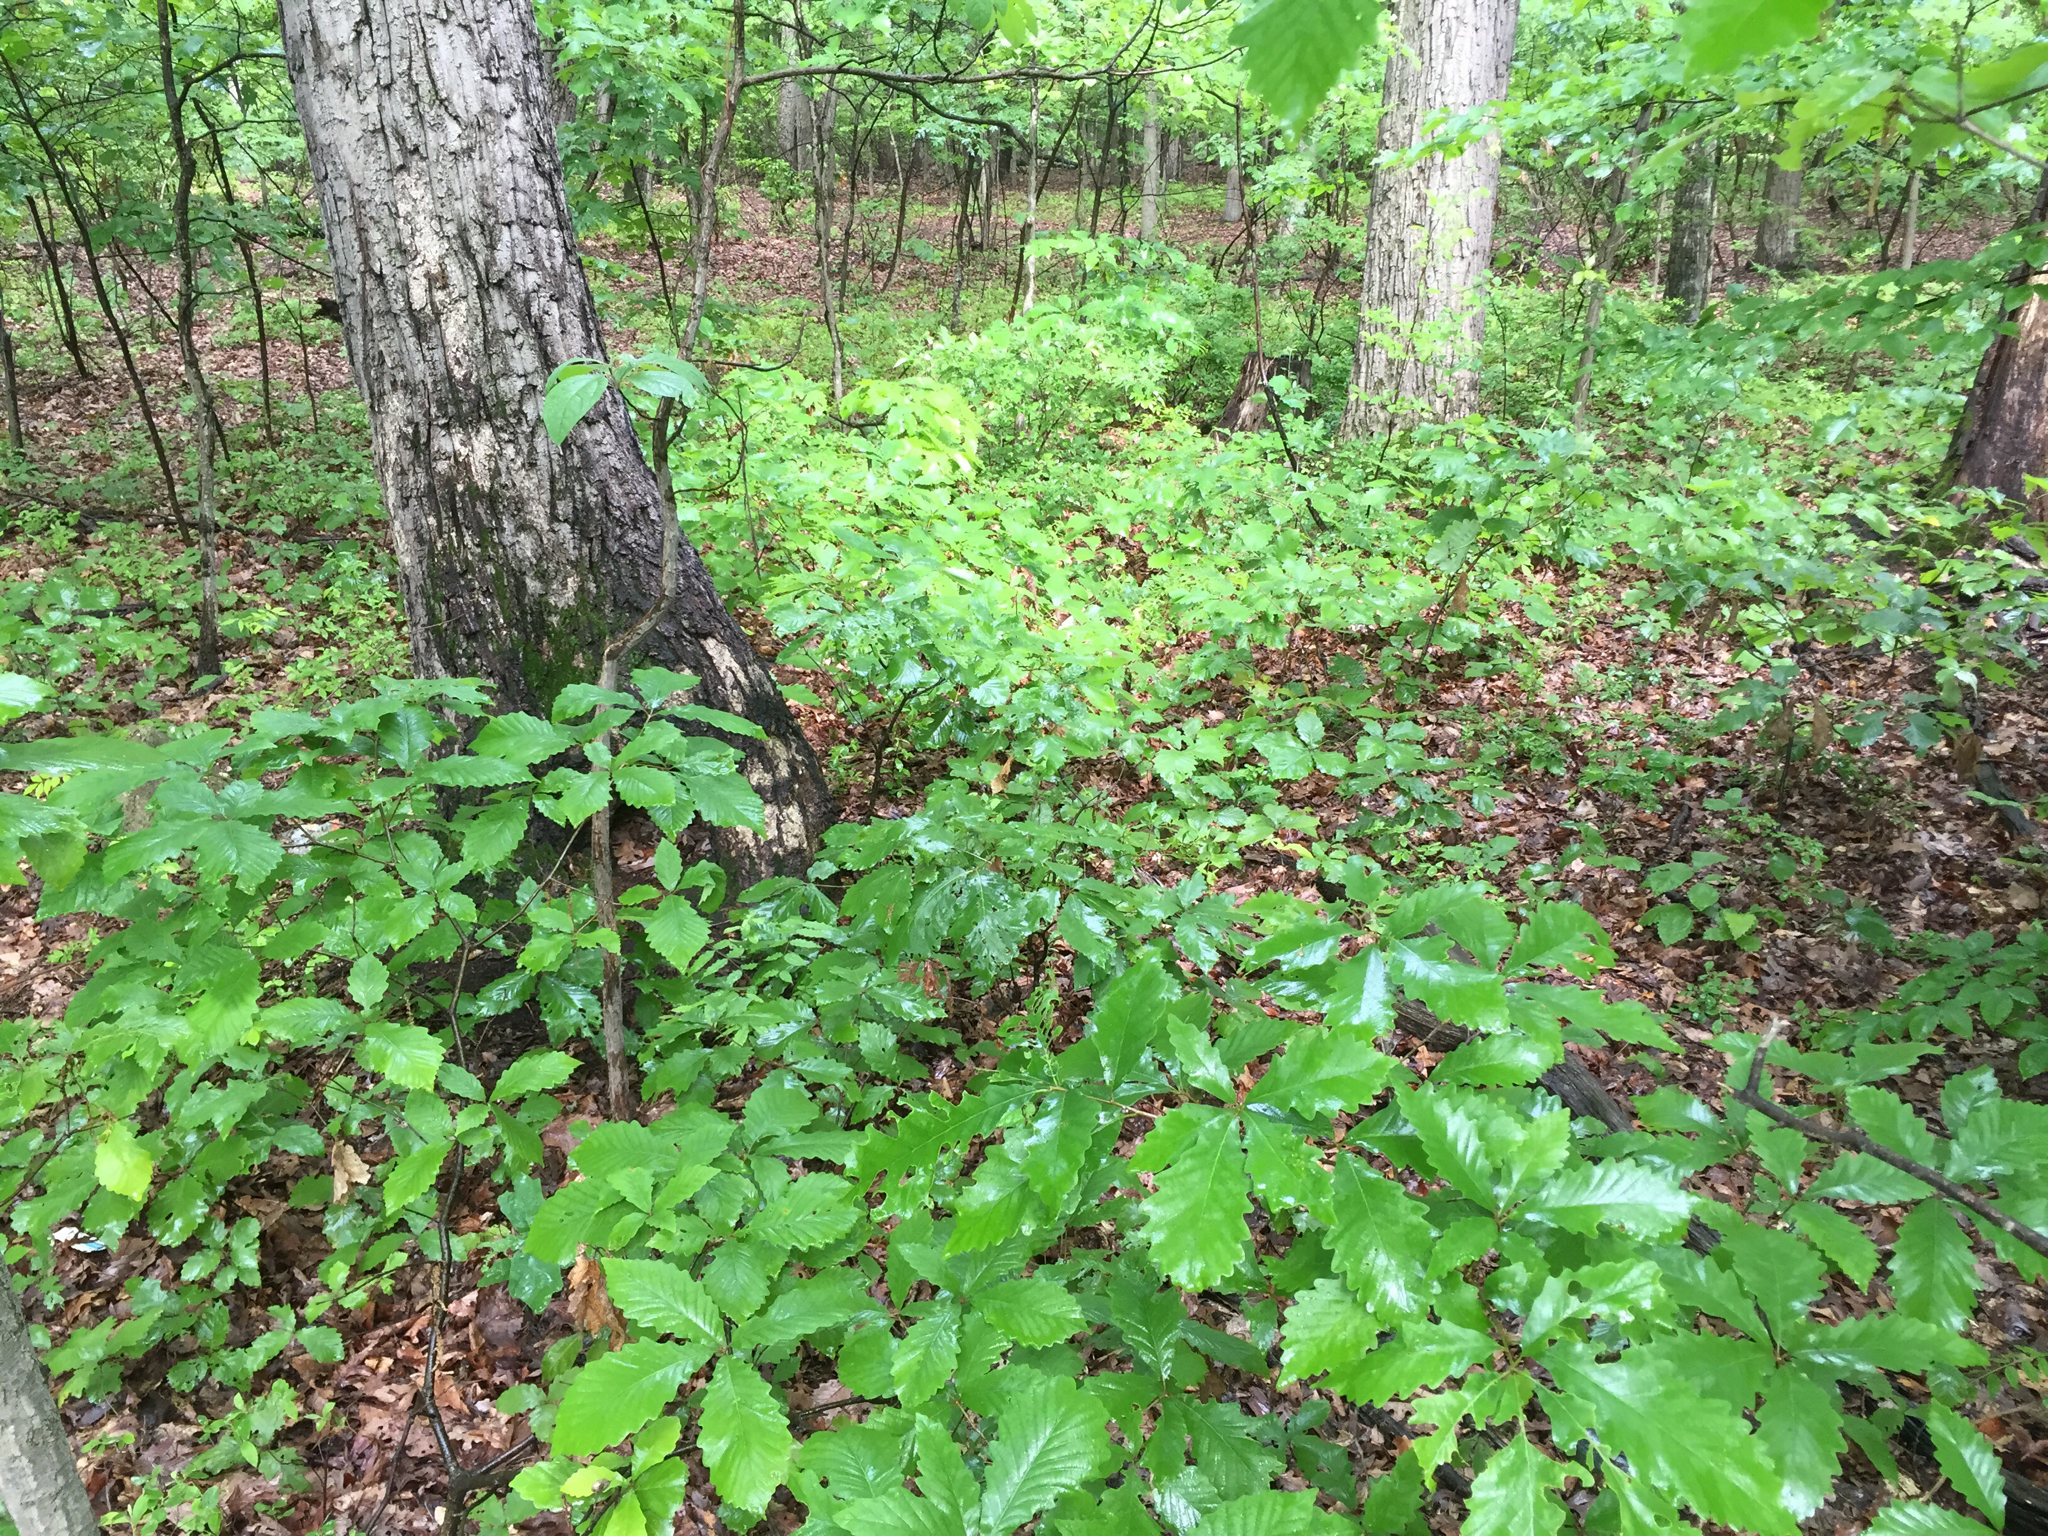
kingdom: Plantae
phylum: Tracheophyta
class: Magnoliopsida
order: Fagales
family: Fagaceae
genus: Quercus
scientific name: Quercus montana
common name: Chestnut oak
